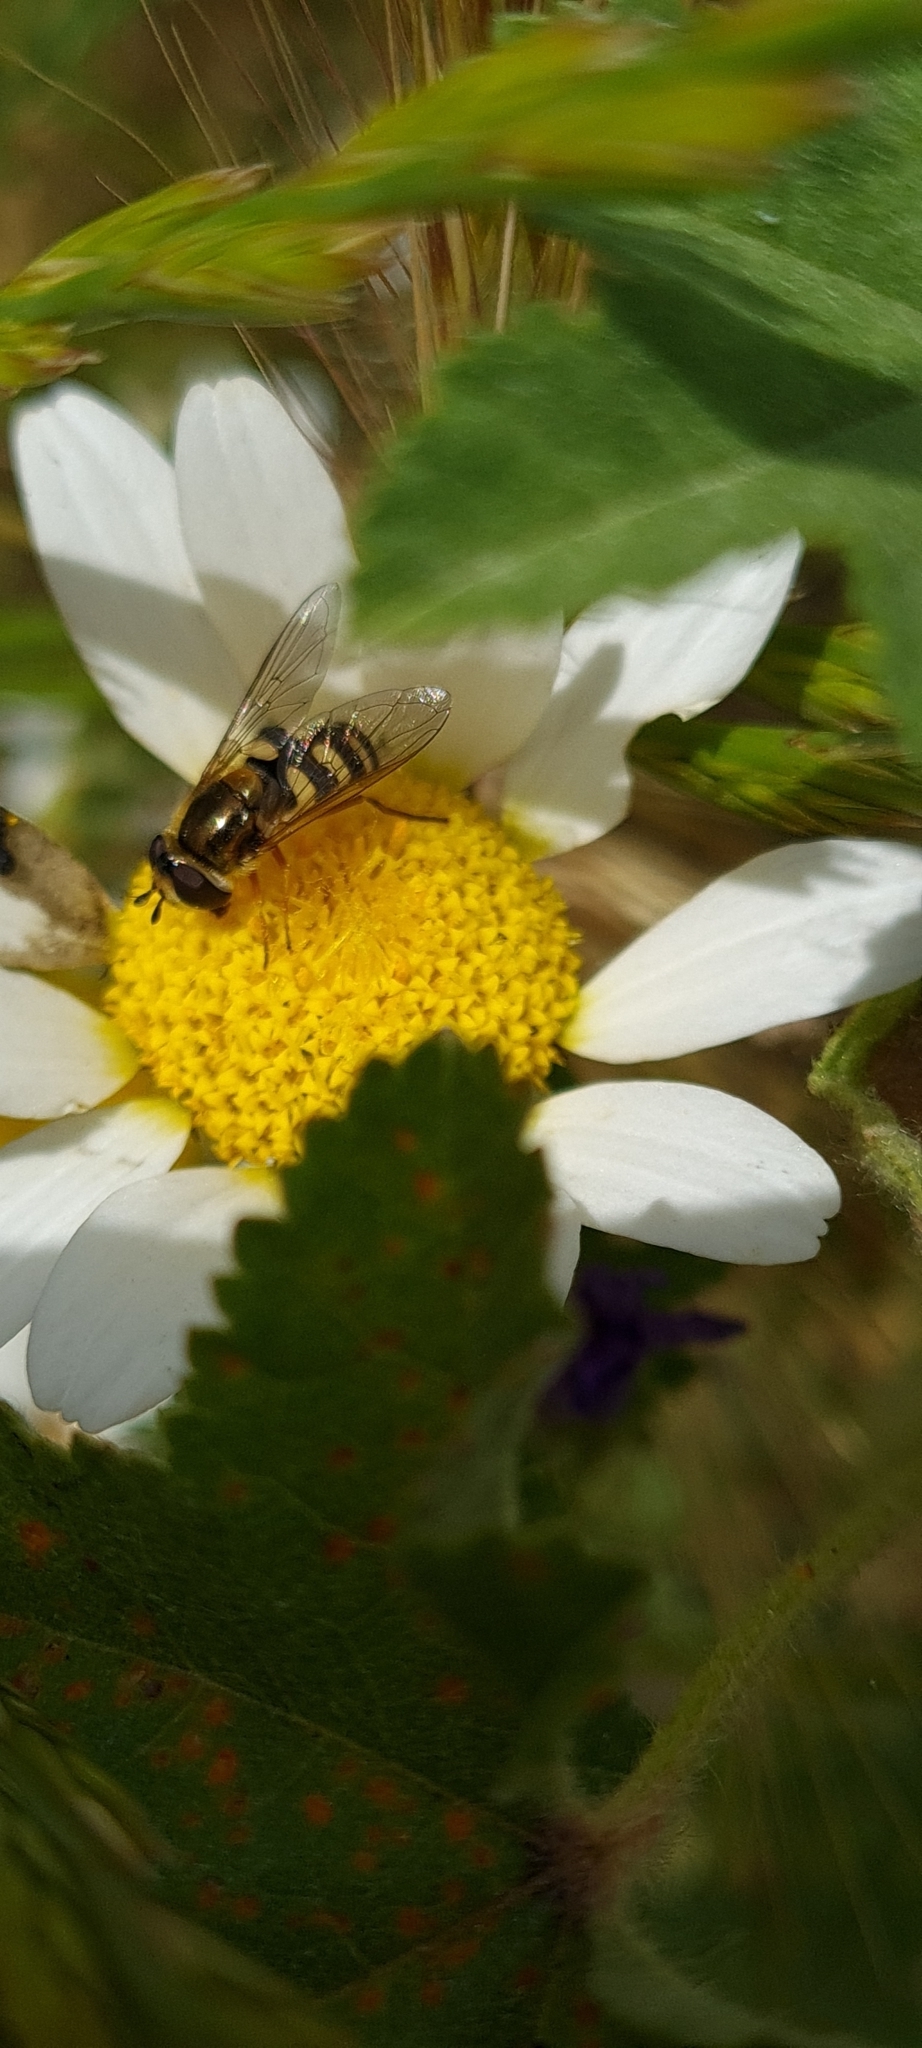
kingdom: Animalia
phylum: Arthropoda
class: Insecta
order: Diptera
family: Syrphidae
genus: Eupeodes
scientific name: Eupeodes corollae
